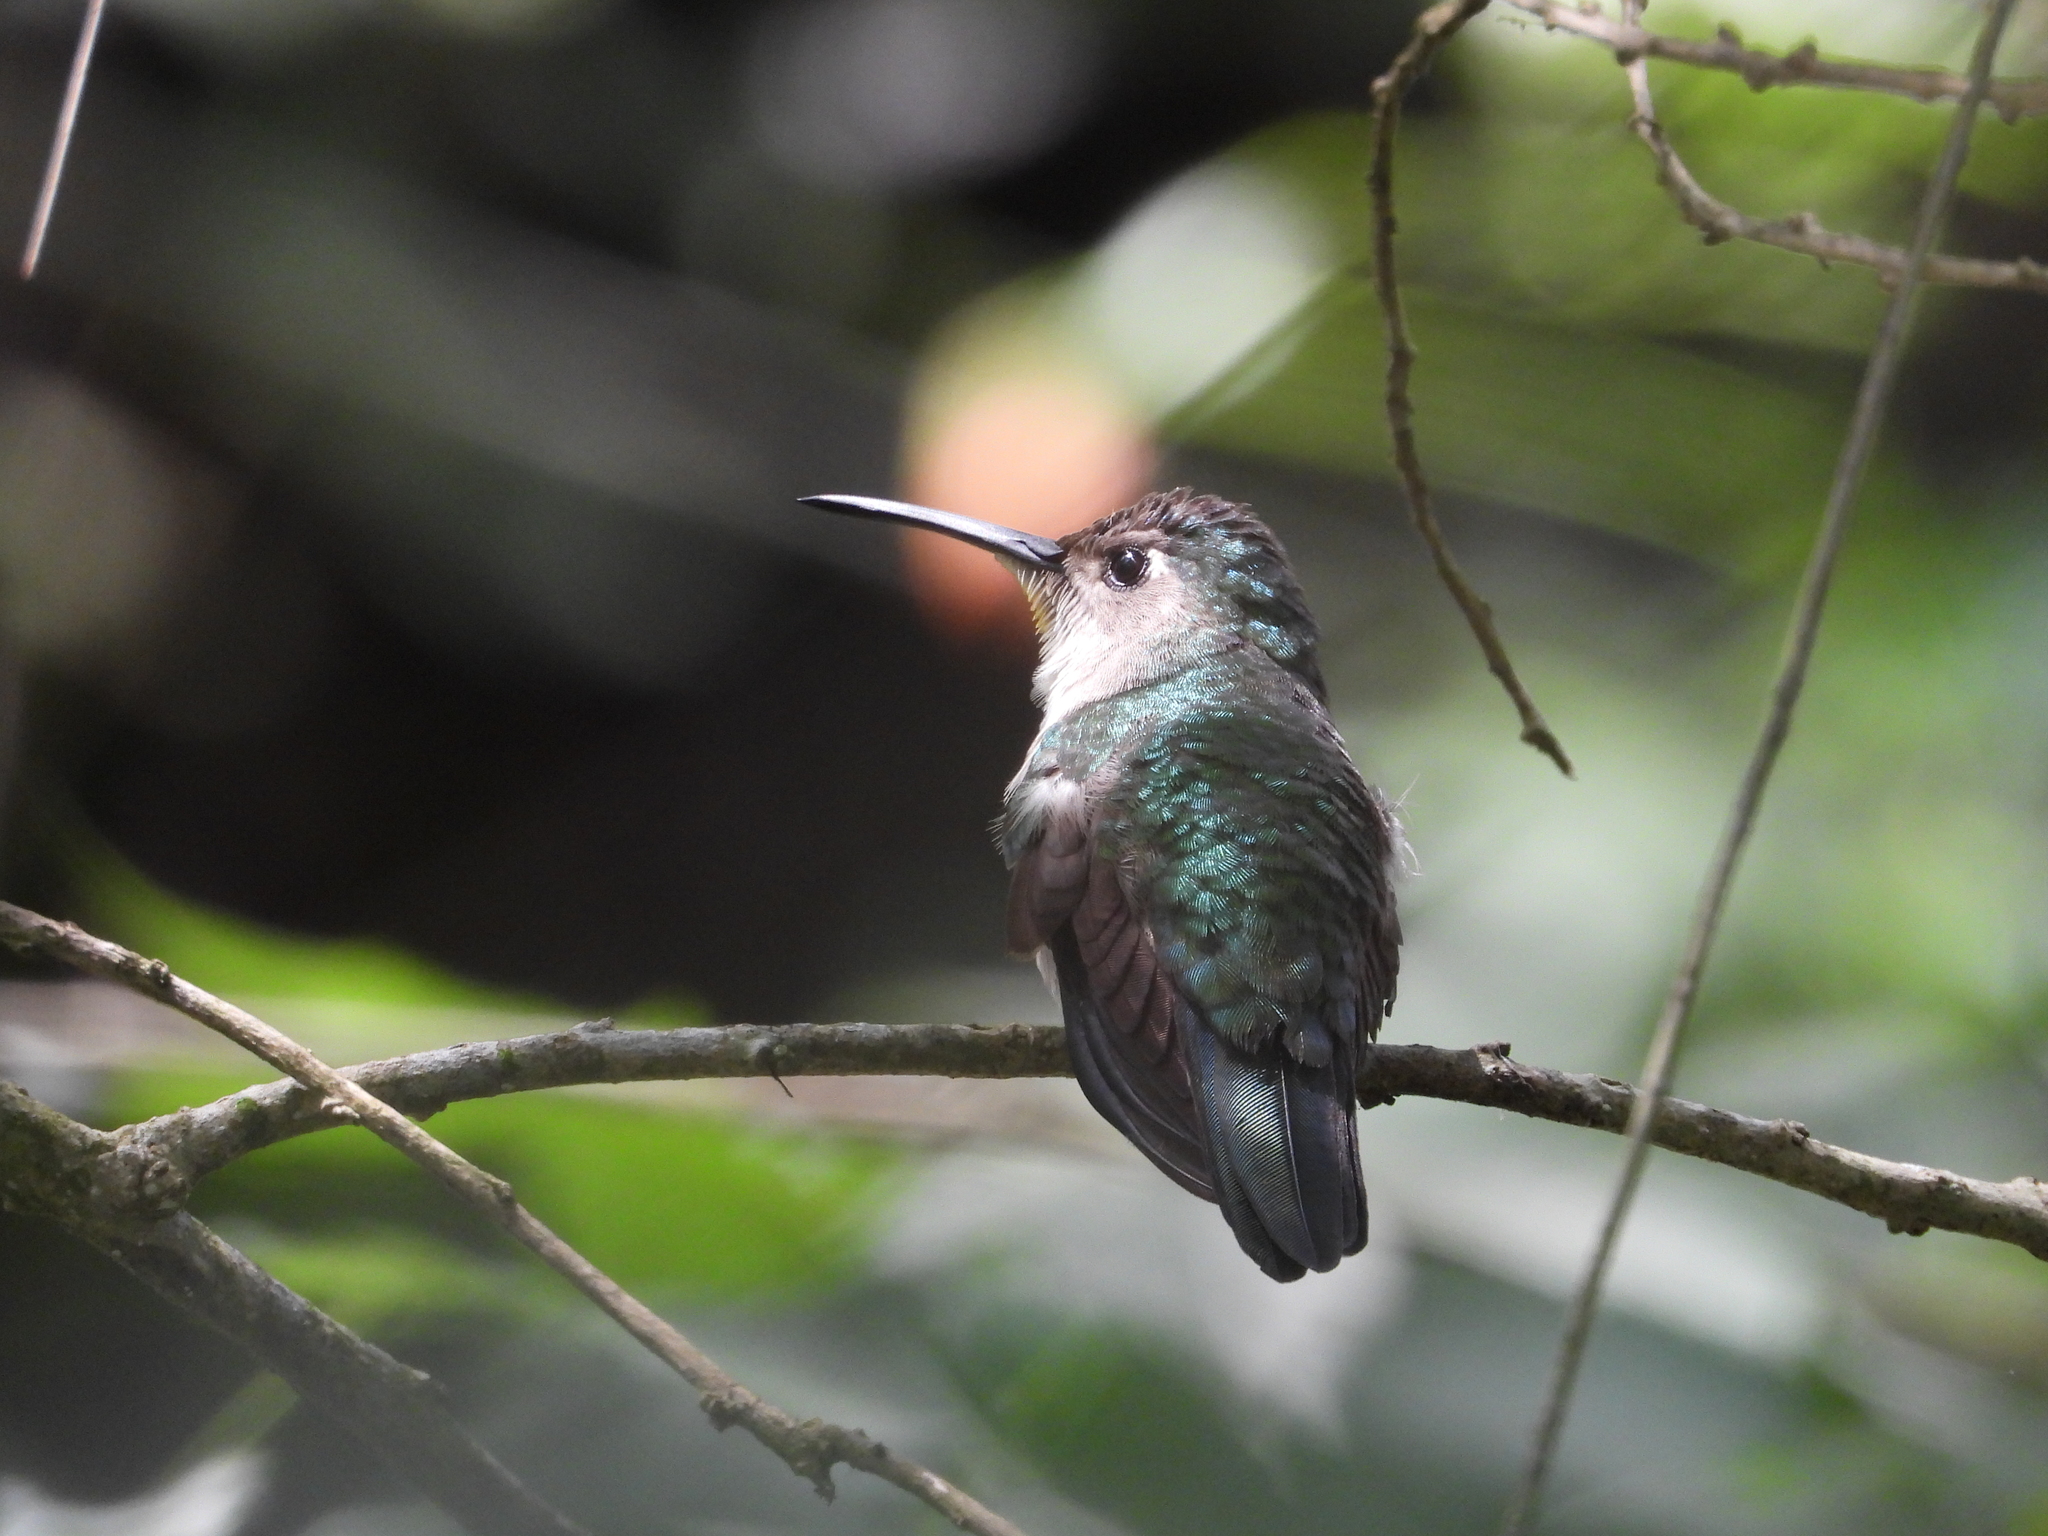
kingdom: Animalia
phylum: Chordata
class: Aves
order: Apodiformes
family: Trochilidae
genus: Pampa
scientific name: Pampa curvipennis
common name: Curve-winged sabrewing
